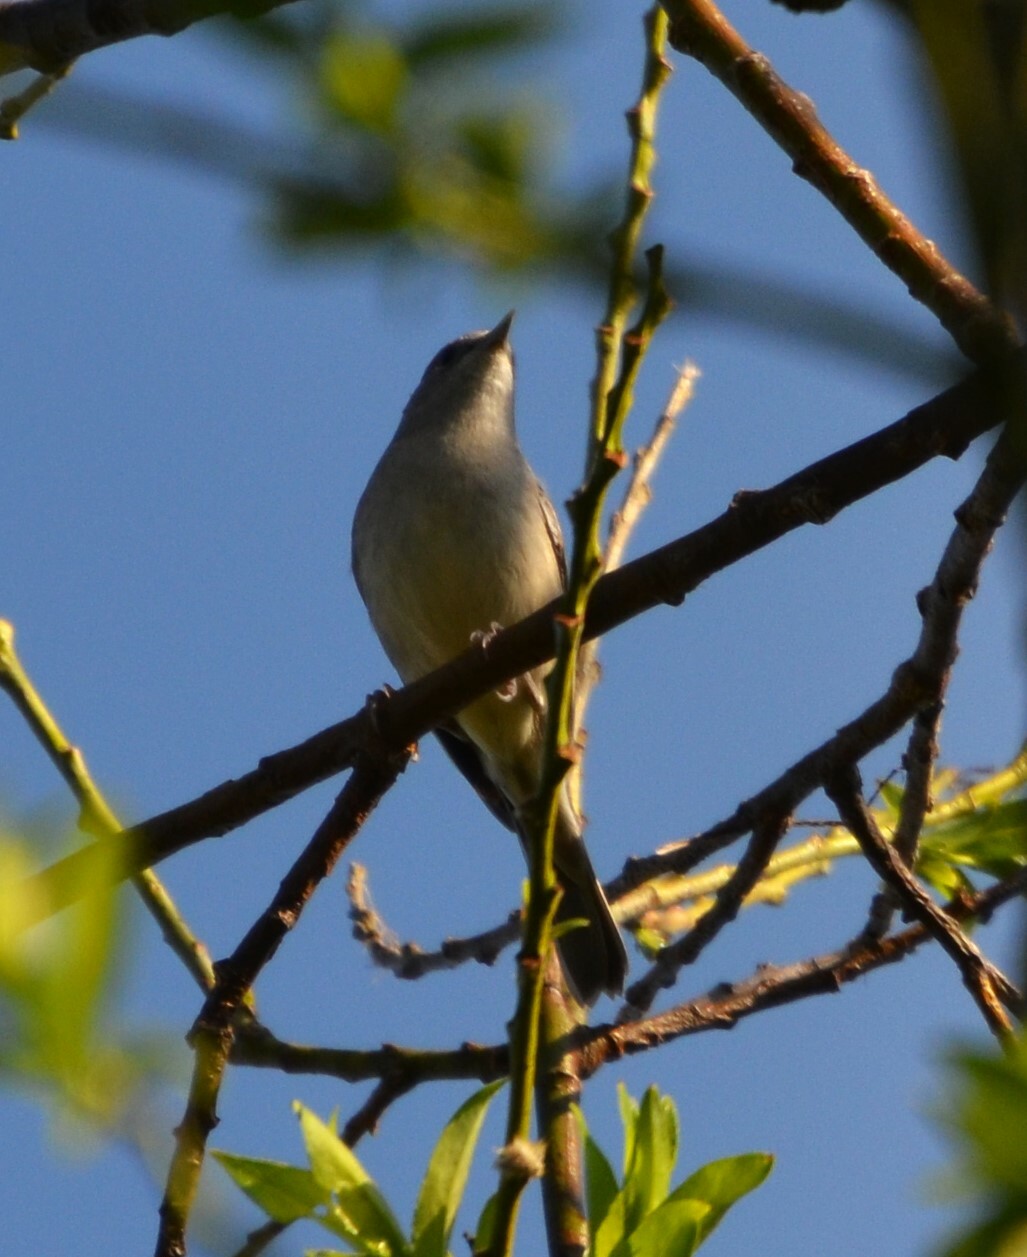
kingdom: Animalia
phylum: Chordata
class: Aves
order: Passeriformes
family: Sylviidae
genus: Sylvia
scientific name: Sylvia atricapilla
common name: Eurasian blackcap
